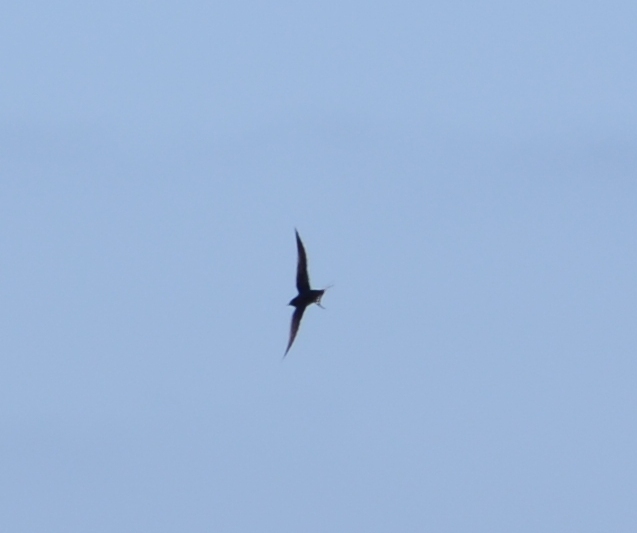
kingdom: Animalia
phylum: Chordata
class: Aves
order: Passeriformes
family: Hirundinidae
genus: Hirundo
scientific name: Hirundo rustica
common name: Barn swallow
